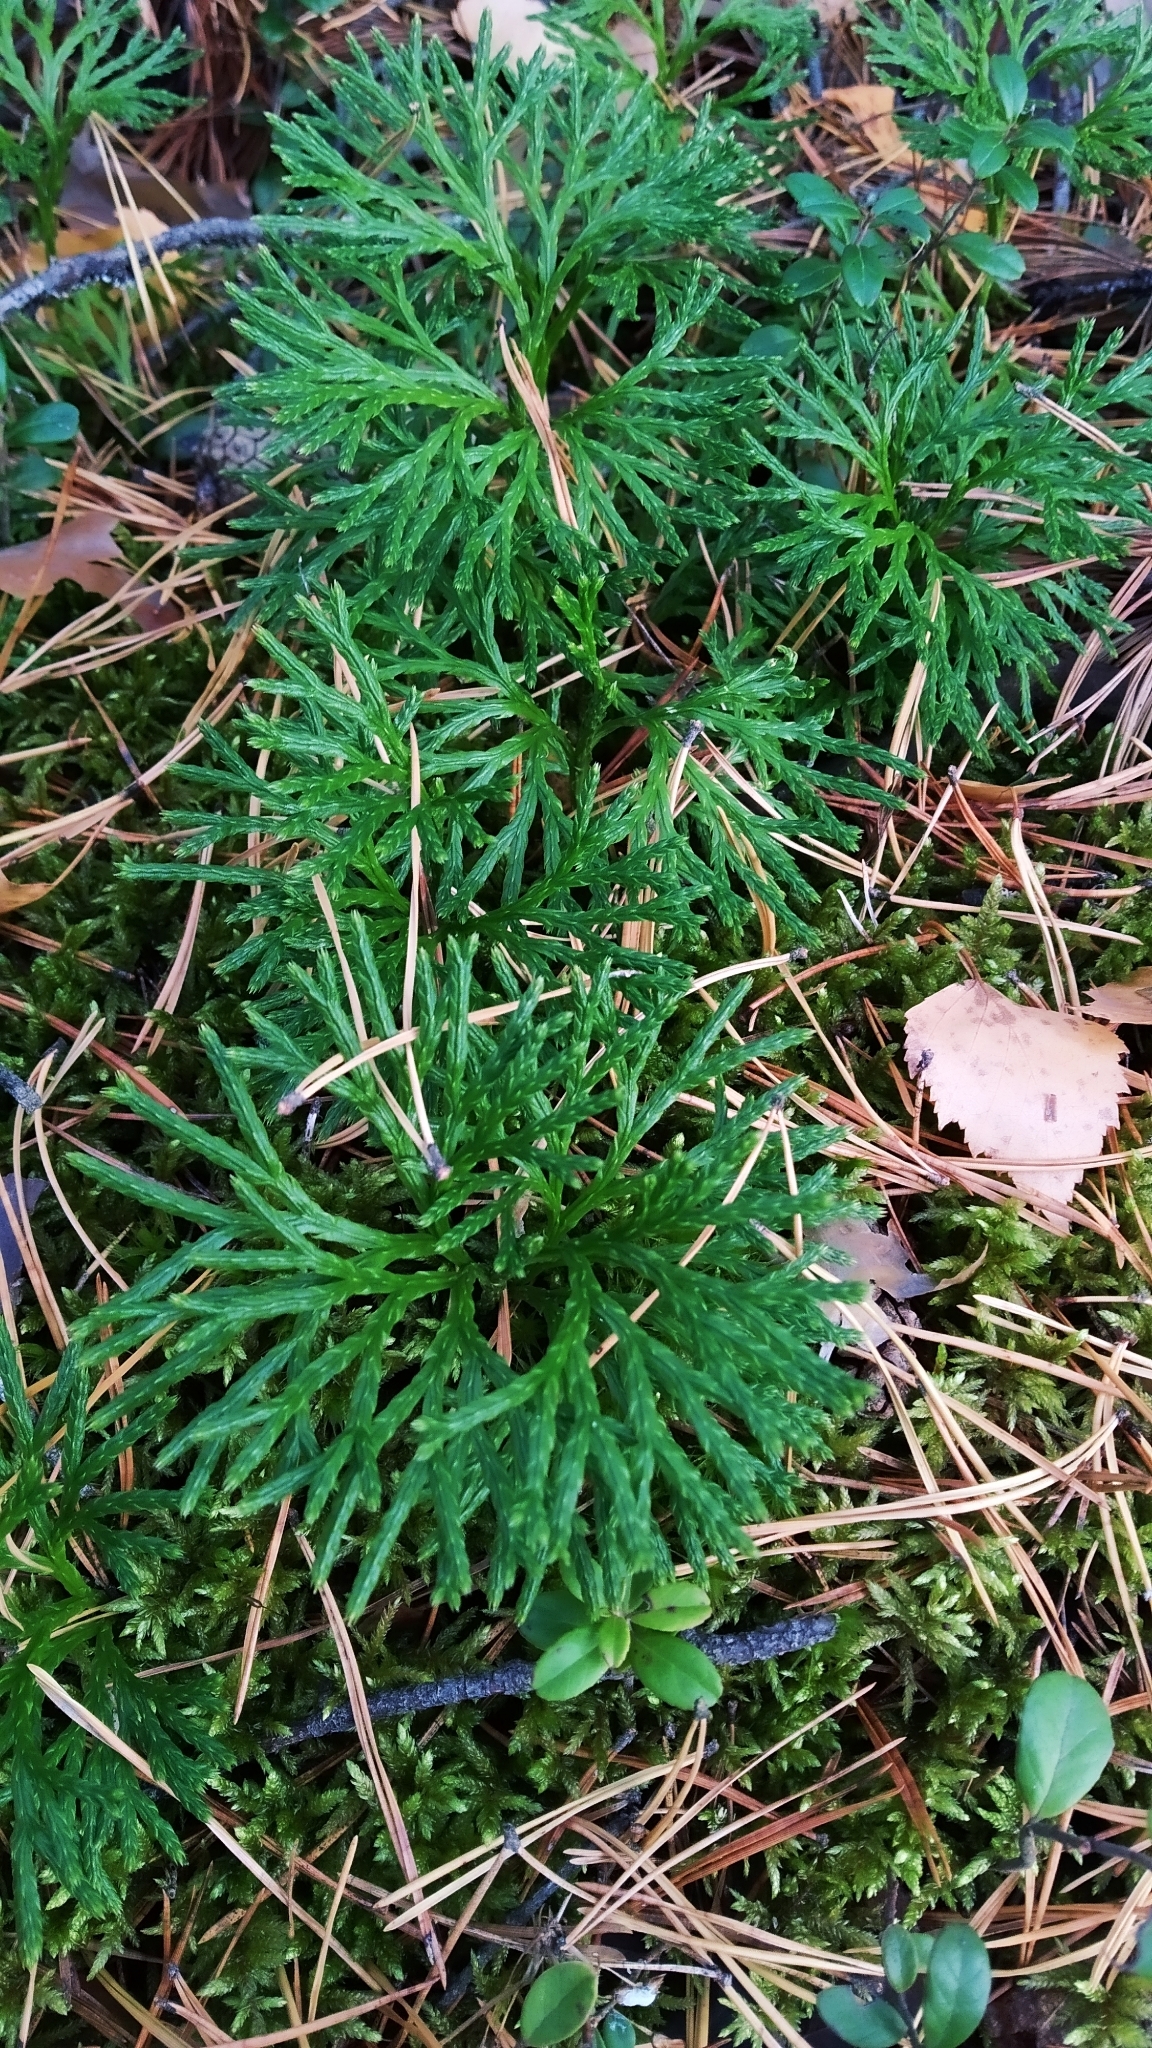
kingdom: Plantae
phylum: Tracheophyta
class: Lycopodiopsida
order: Lycopodiales
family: Lycopodiaceae
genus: Diphasiastrum
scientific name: Diphasiastrum complanatum
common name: Northern running-pine
